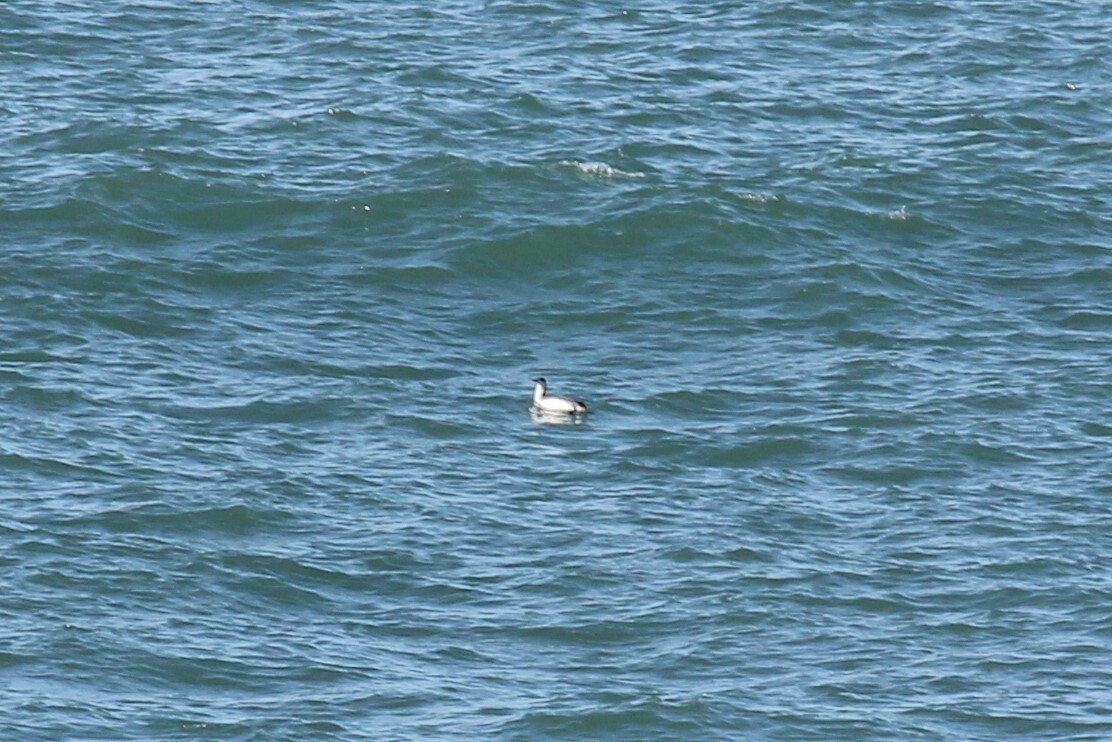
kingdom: Animalia
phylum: Chordata
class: Aves
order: Gaviiformes
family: Gaviidae
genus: Gavia
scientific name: Gavia stellata
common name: Red-throated loon
